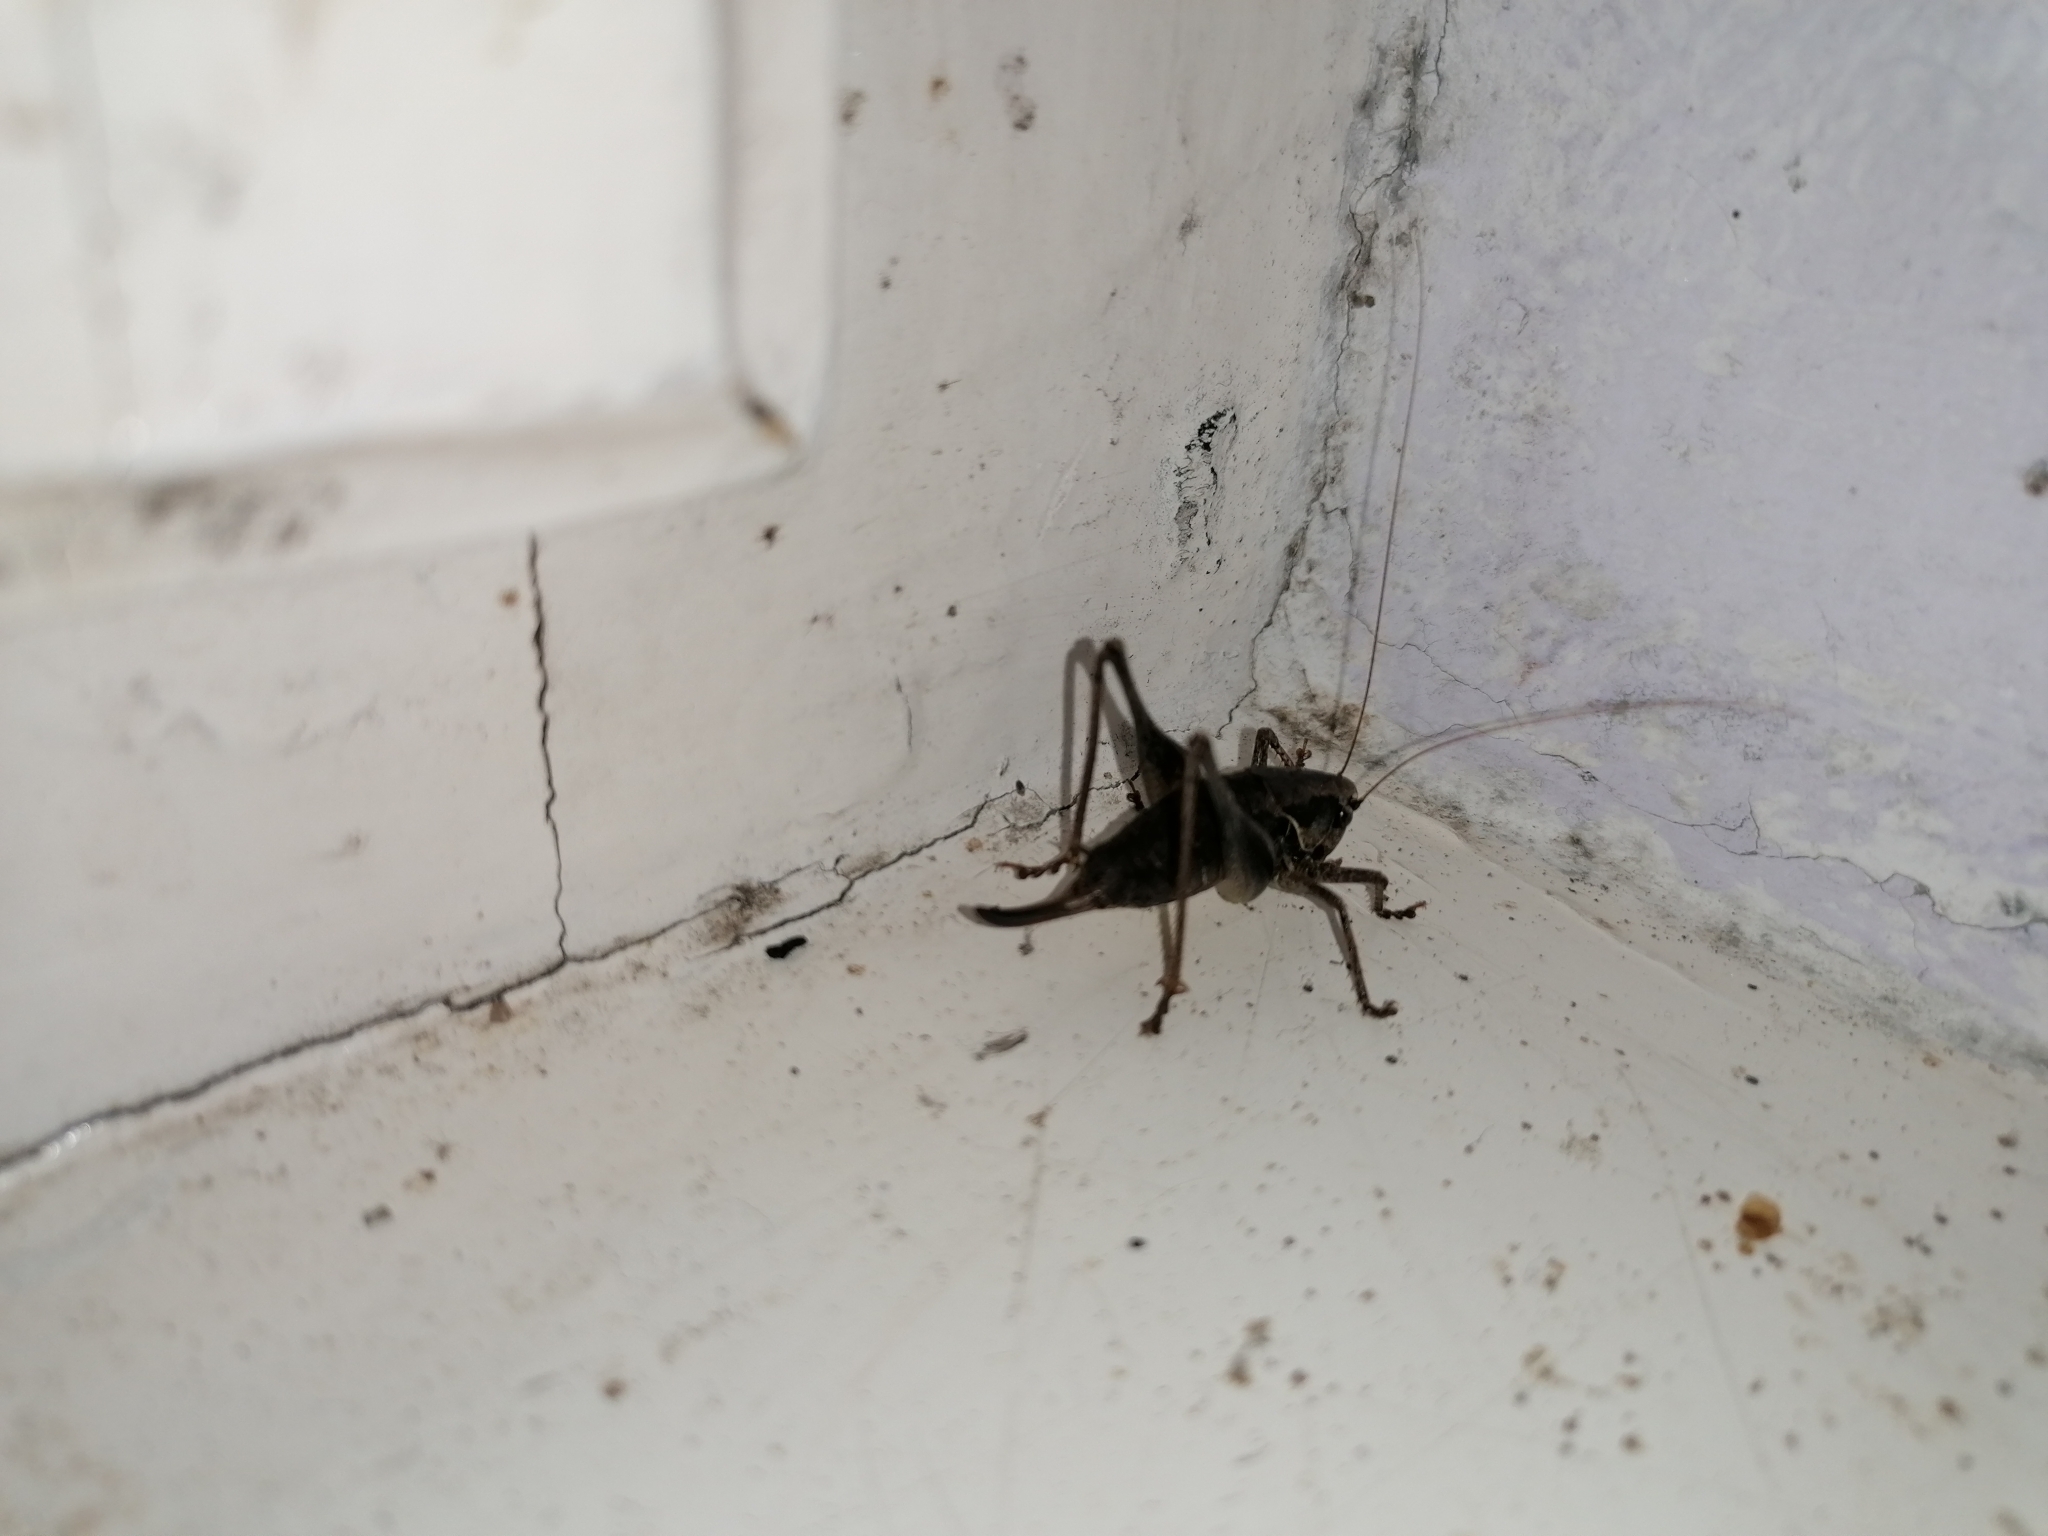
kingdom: Animalia
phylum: Arthropoda
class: Insecta
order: Orthoptera
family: Tettigoniidae
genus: Pholidoptera
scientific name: Pholidoptera griseoaptera
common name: Dark bush-cricket
